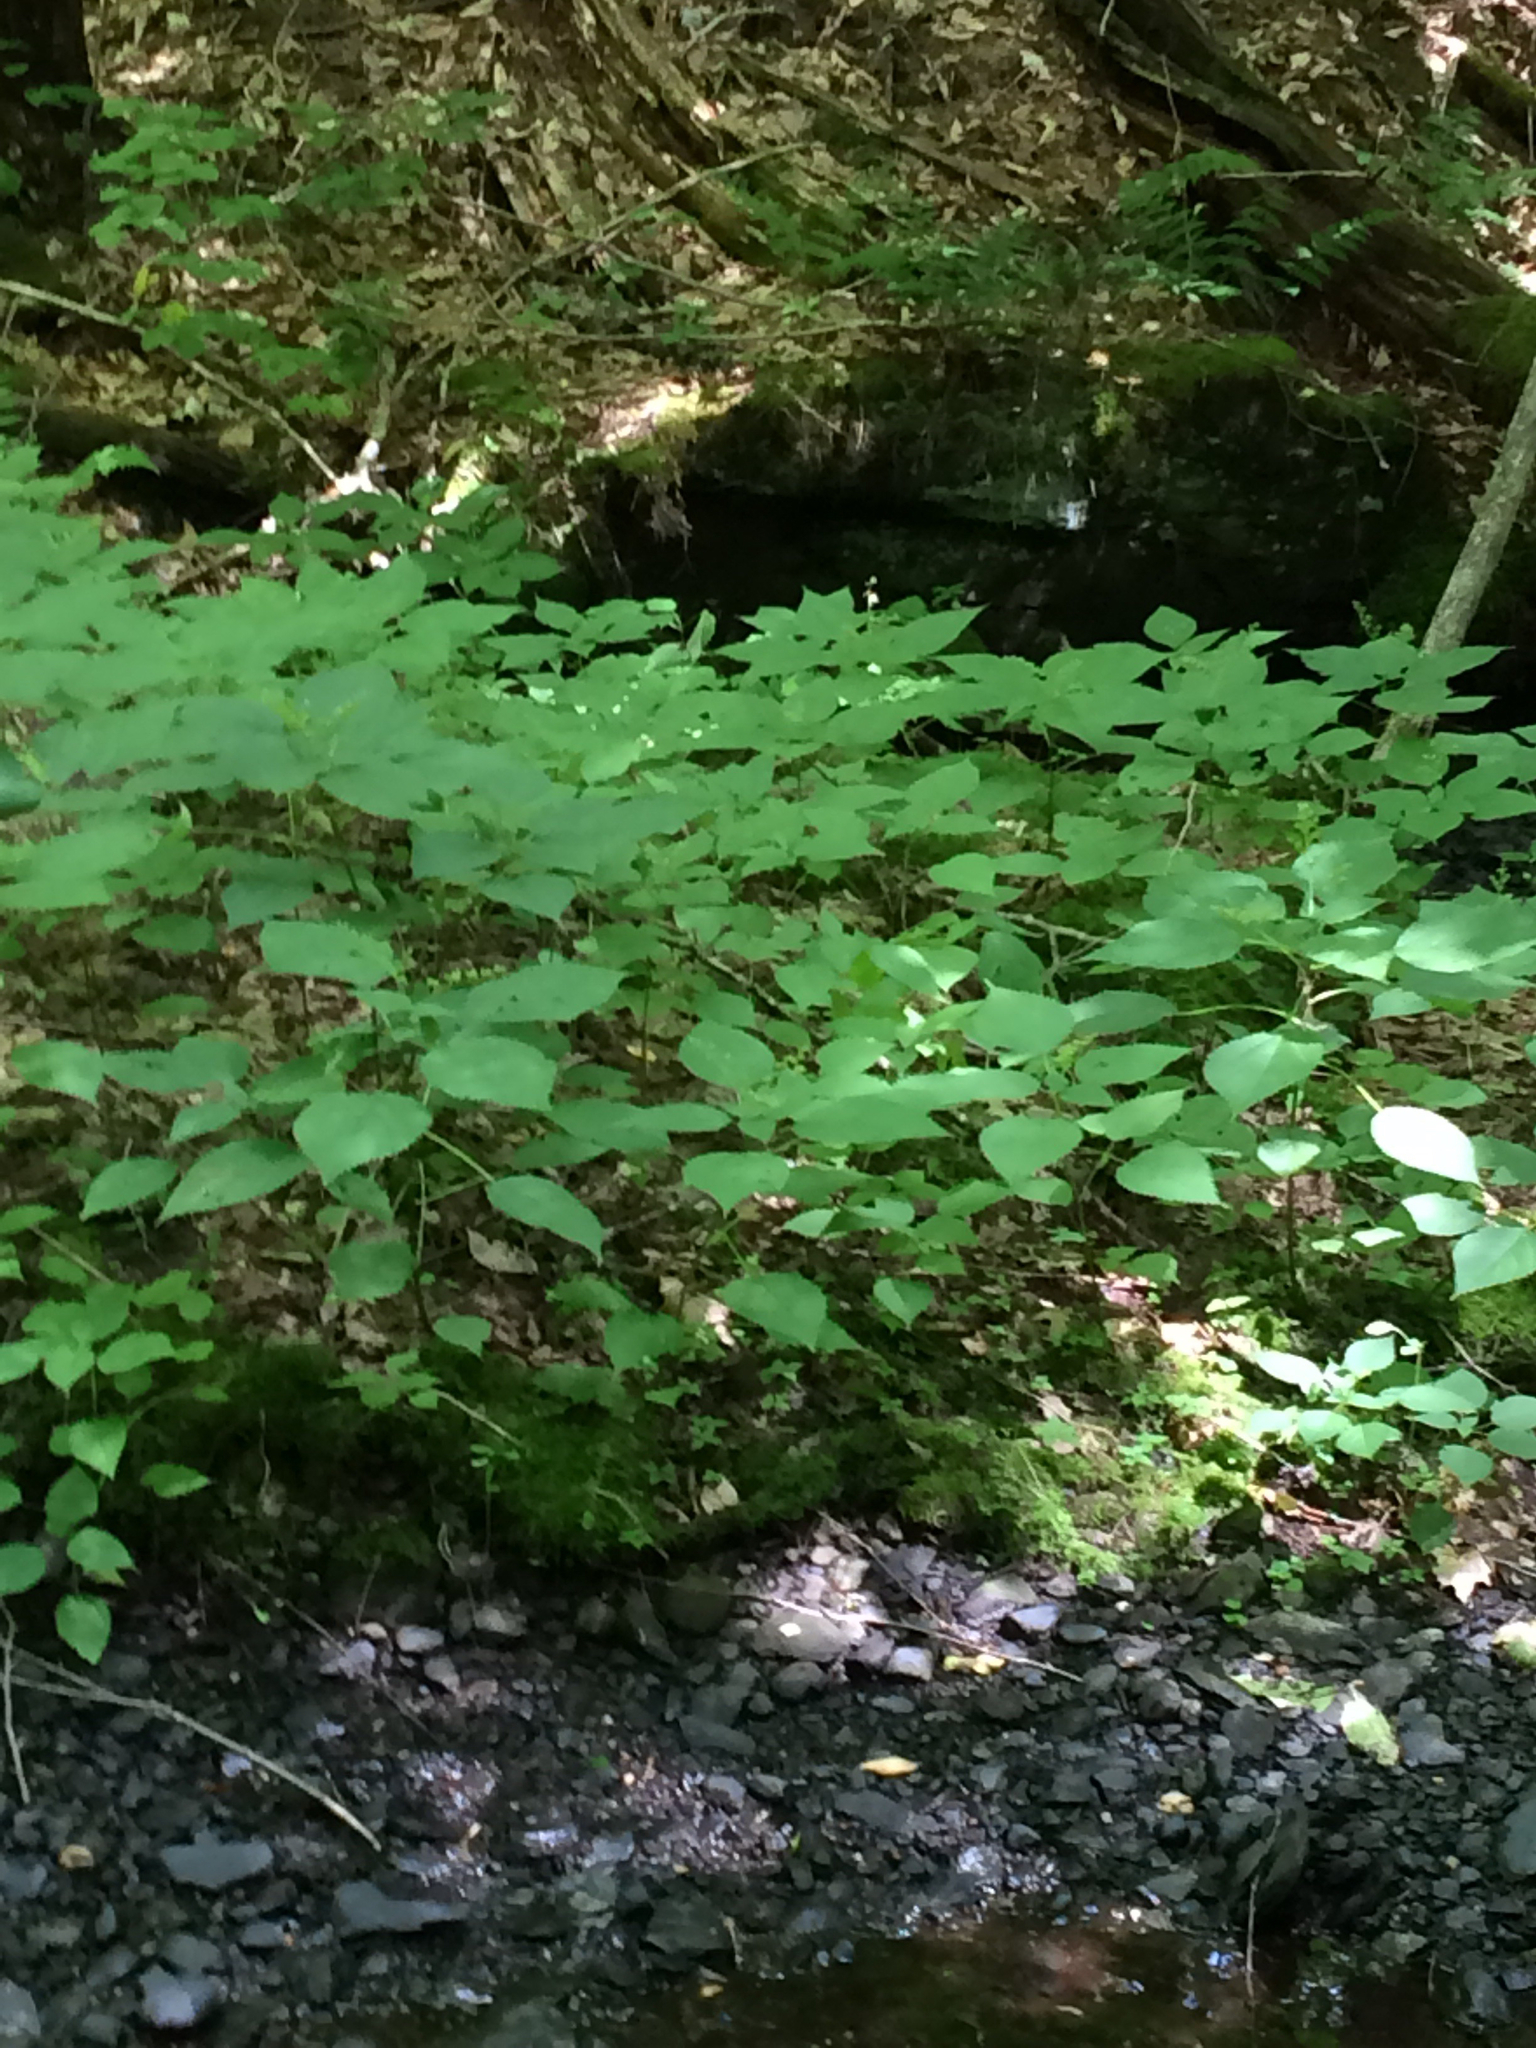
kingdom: Plantae
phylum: Tracheophyta
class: Magnoliopsida
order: Rosales
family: Urticaceae
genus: Laportea
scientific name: Laportea canadensis
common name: Canada nettle
